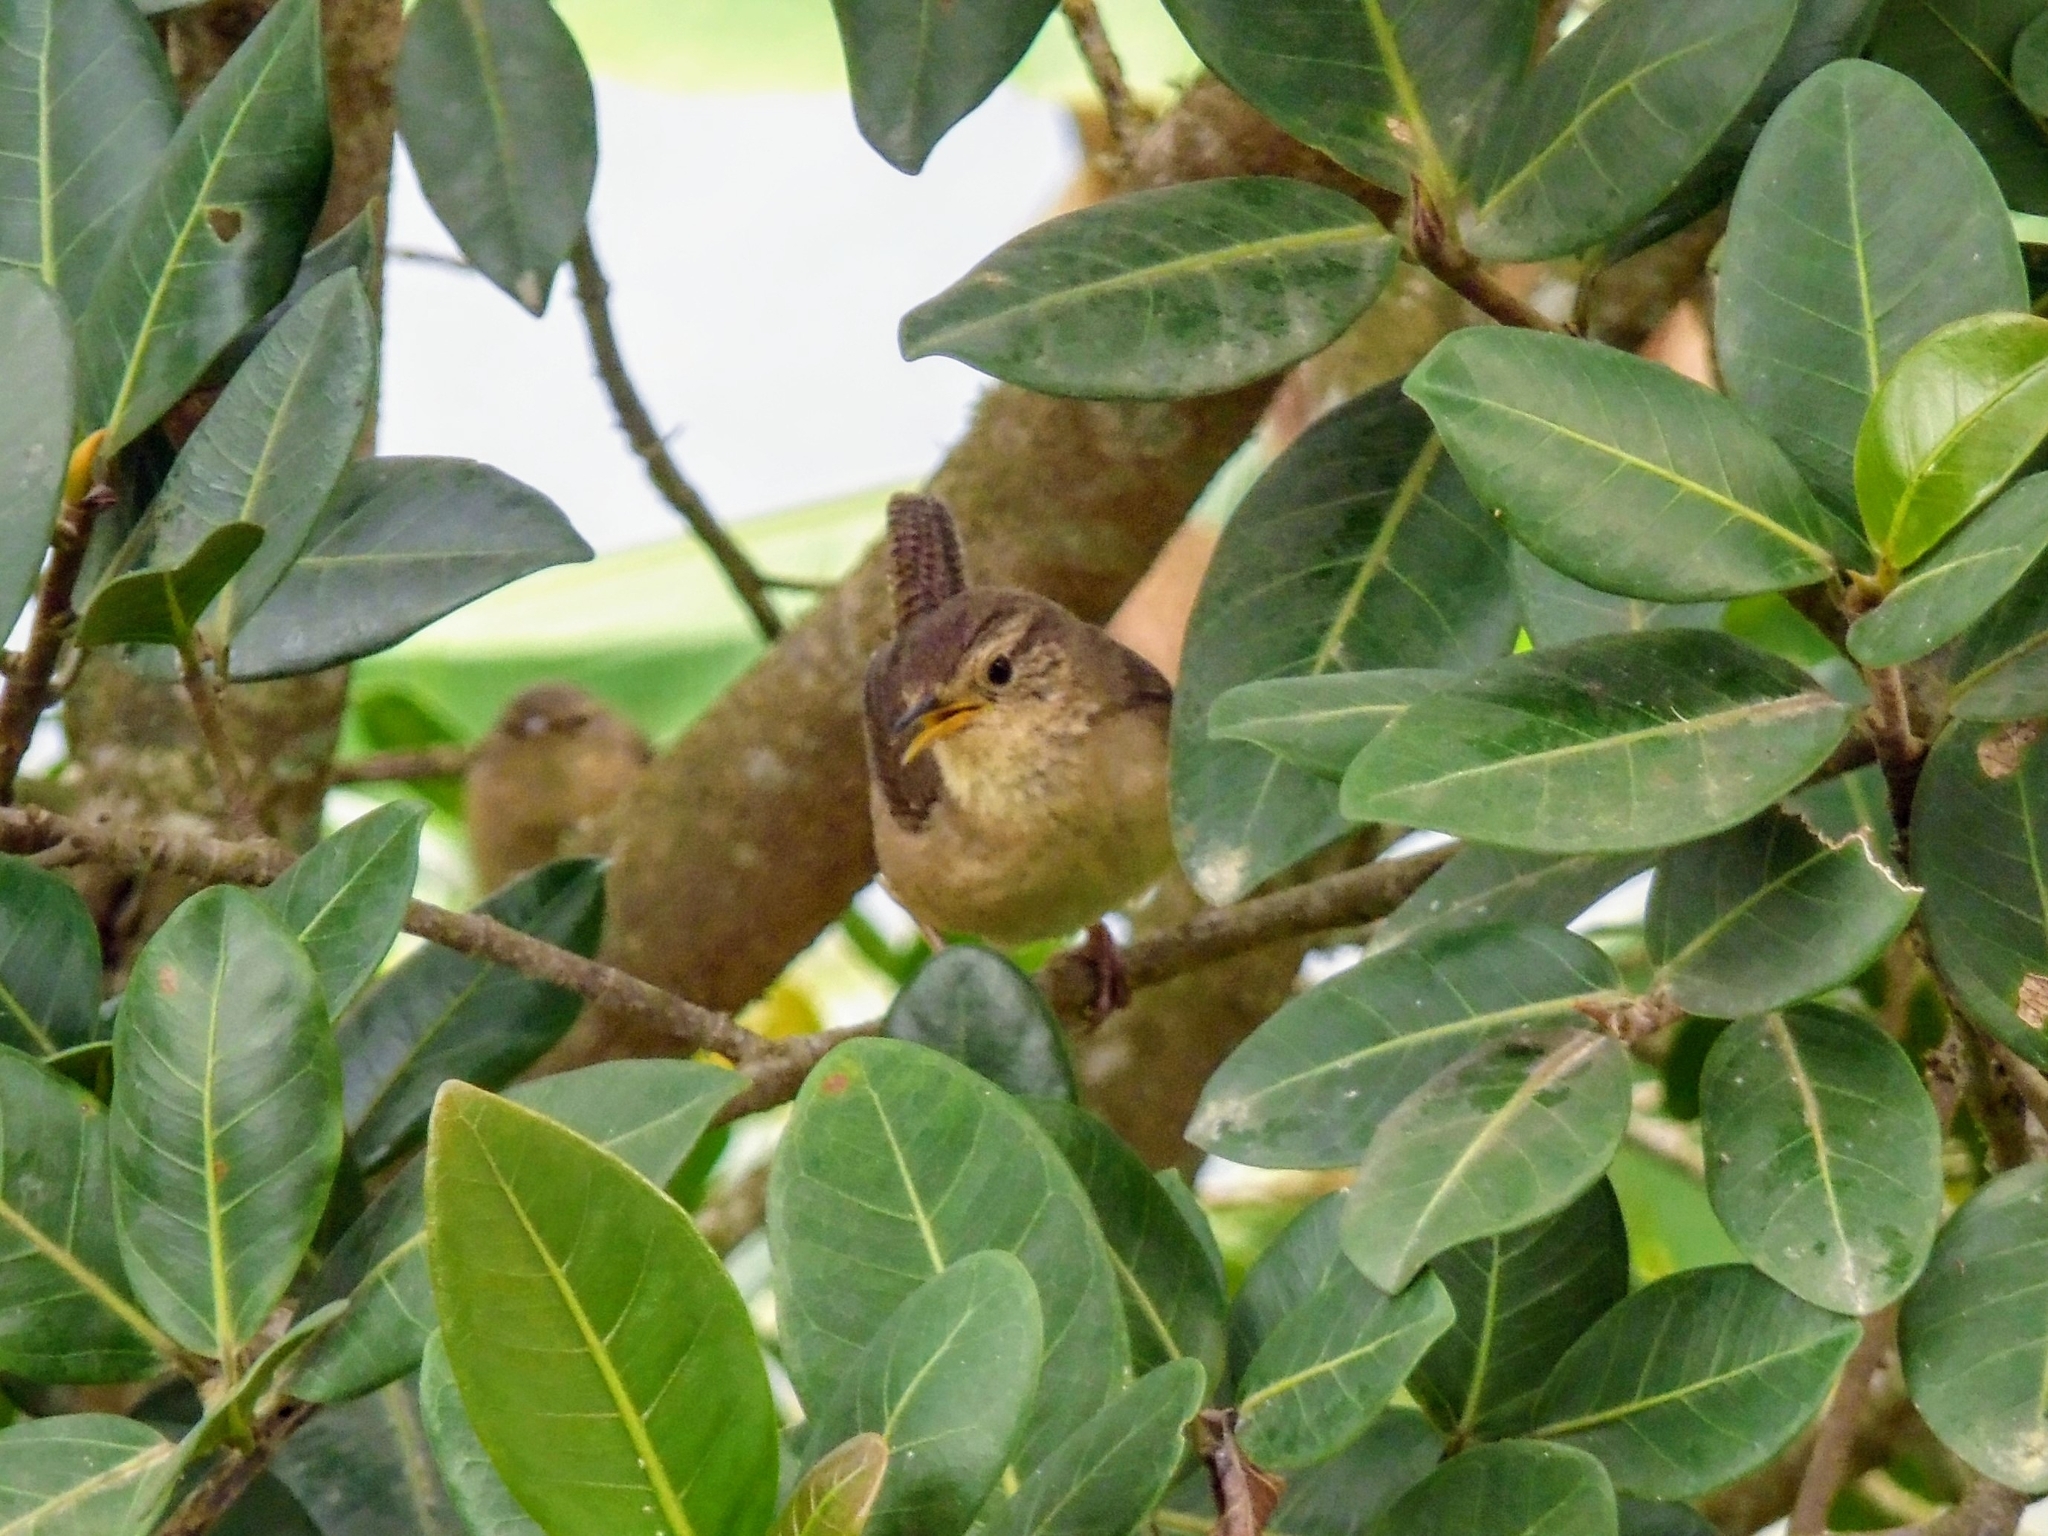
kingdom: Animalia
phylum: Chordata
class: Aves
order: Passeriformes
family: Troglodytidae
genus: Troglodytes
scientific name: Troglodytes aedon
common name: House wren
